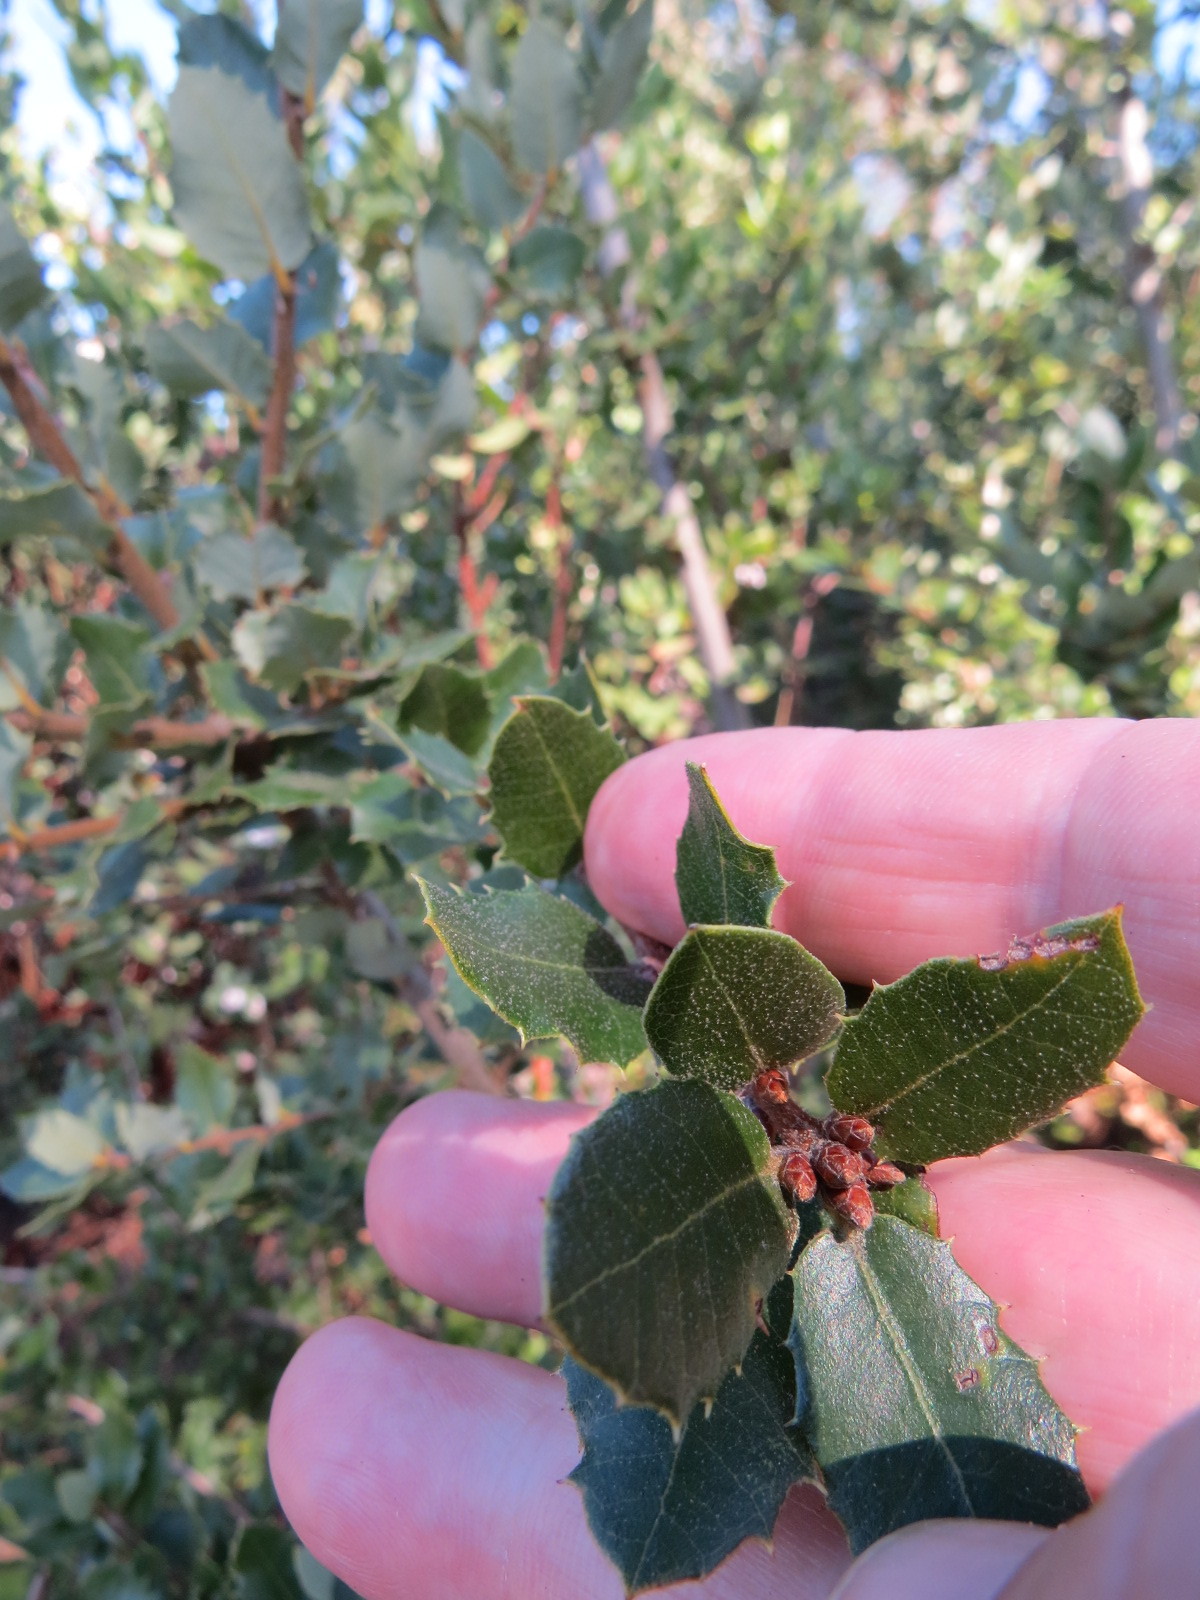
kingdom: Plantae
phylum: Tracheophyta
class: Magnoliopsida
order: Fagales
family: Fagaceae
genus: Quercus
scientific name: Quercus chrysolepis
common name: Canyon live oak
